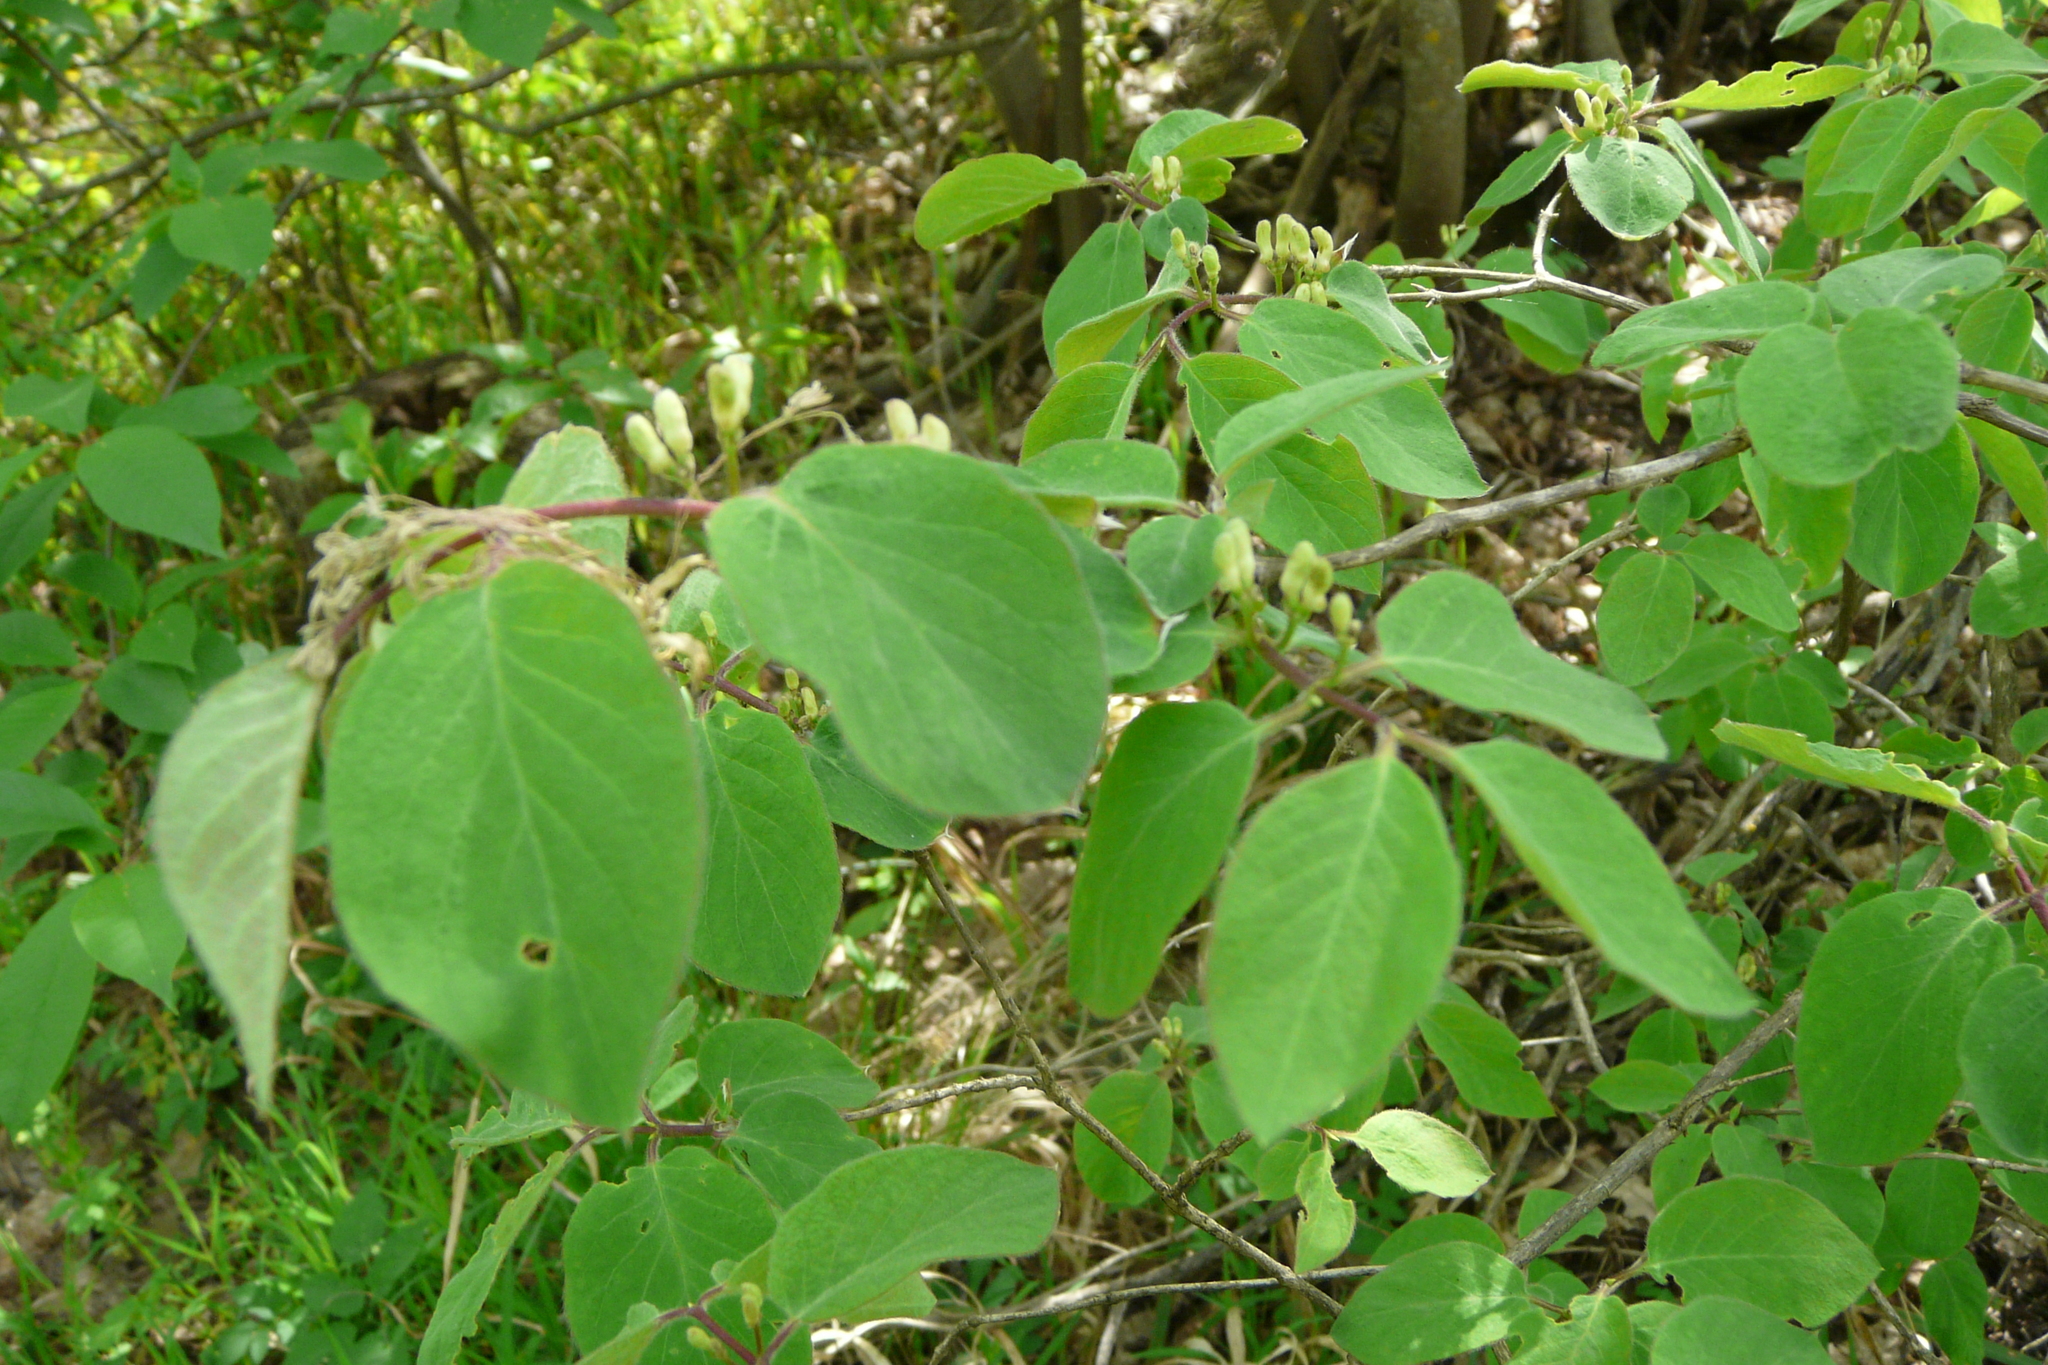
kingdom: Plantae
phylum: Tracheophyta
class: Magnoliopsida
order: Dipsacales
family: Caprifoliaceae
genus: Lonicera
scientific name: Lonicera xylosteum
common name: Fly honeysuckle
